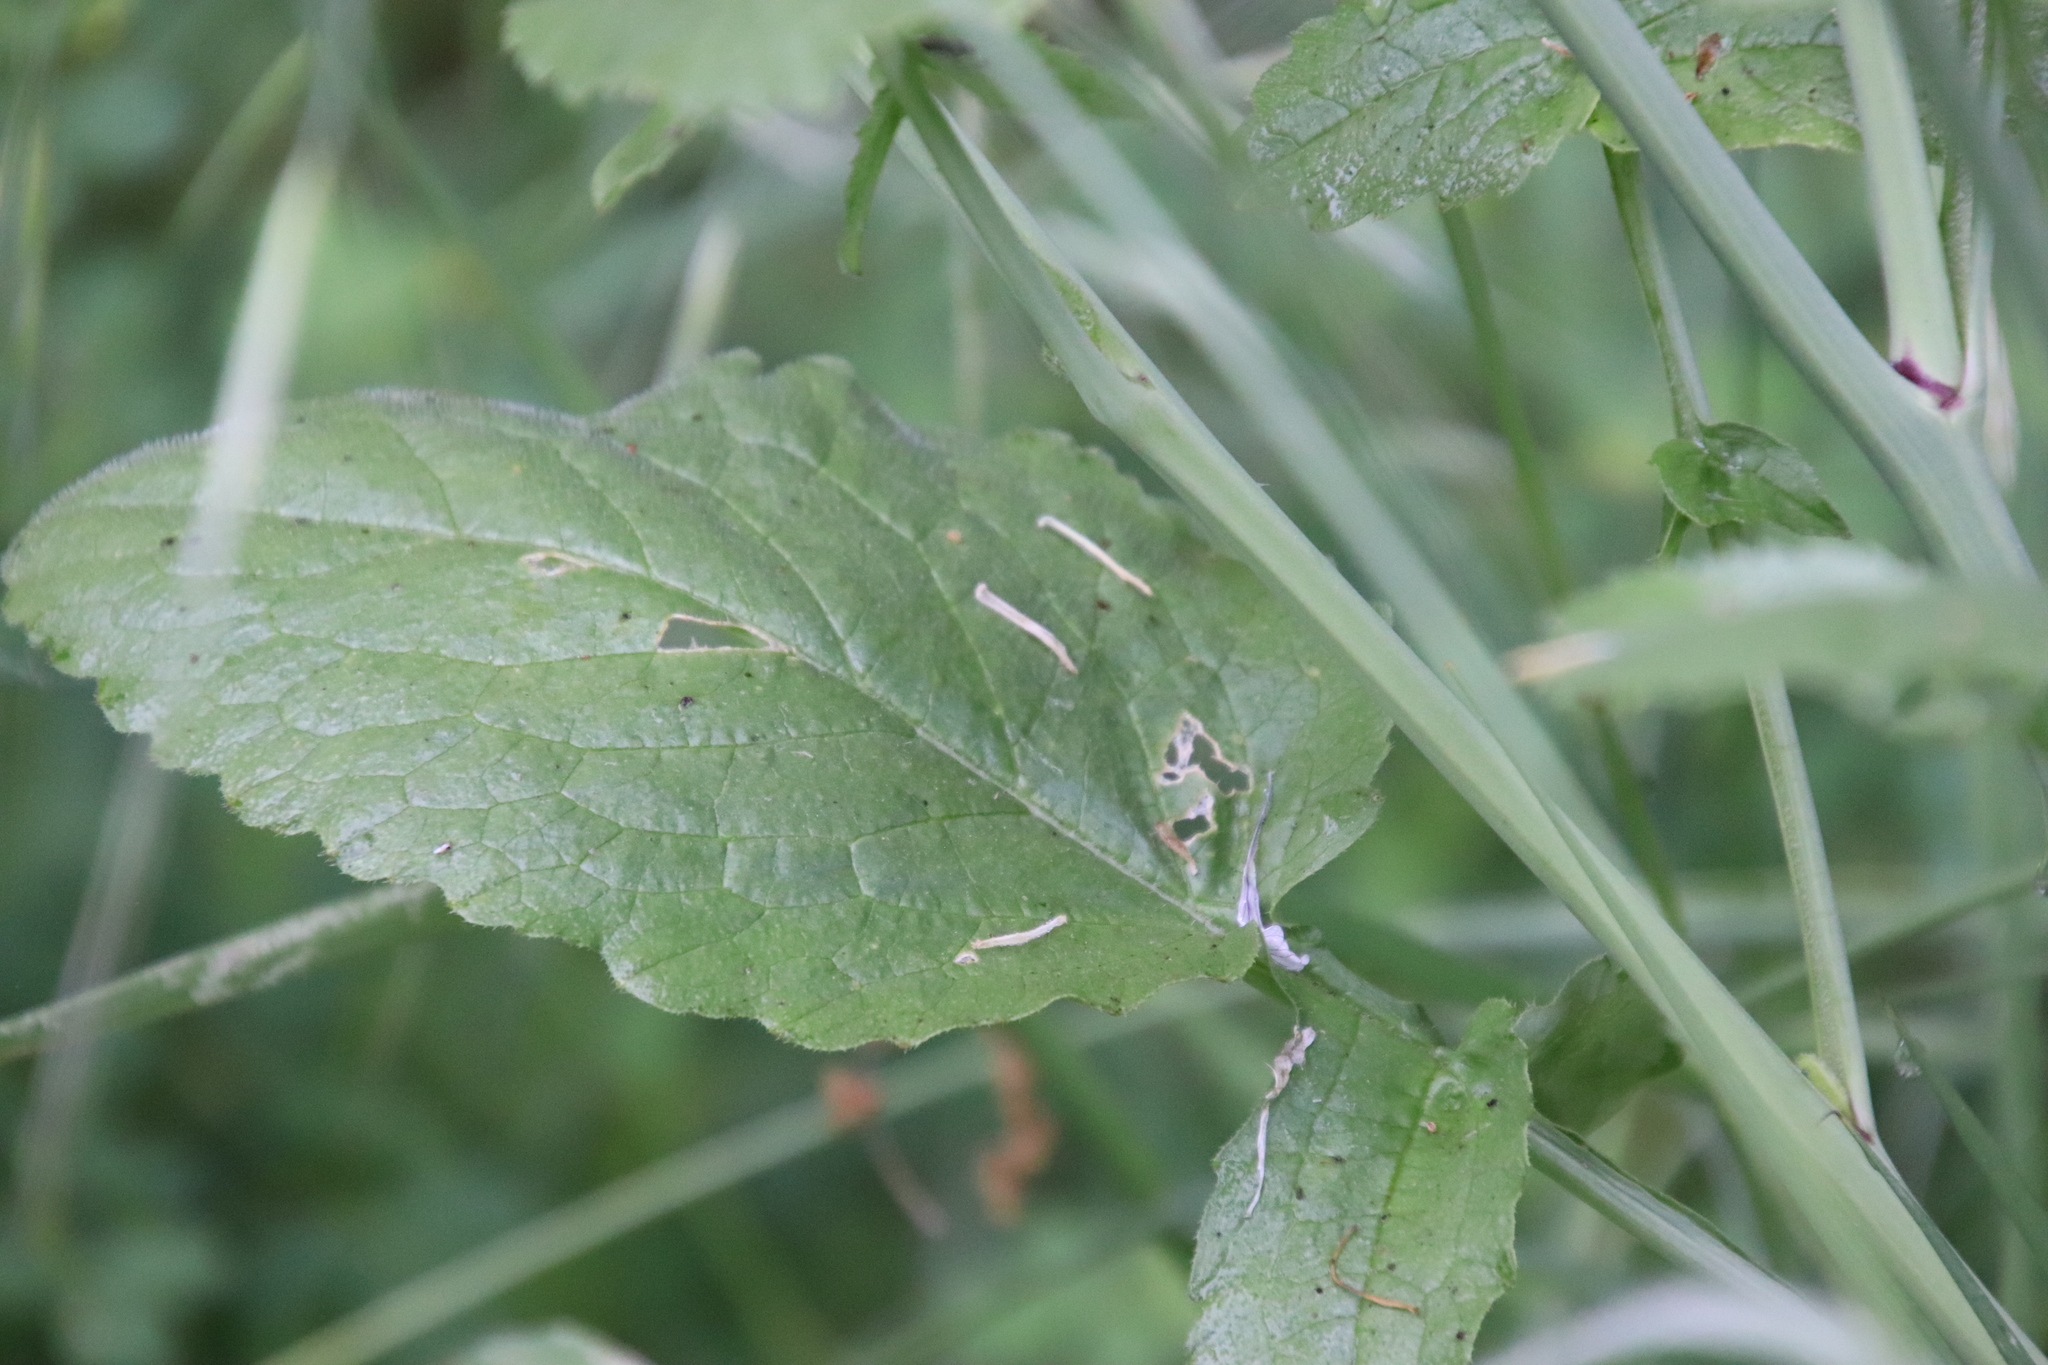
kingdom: Plantae
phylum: Tracheophyta
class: Magnoliopsida
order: Brassicales
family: Brassicaceae
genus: Raphanus
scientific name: Raphanus sativus
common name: Cultivated radish
